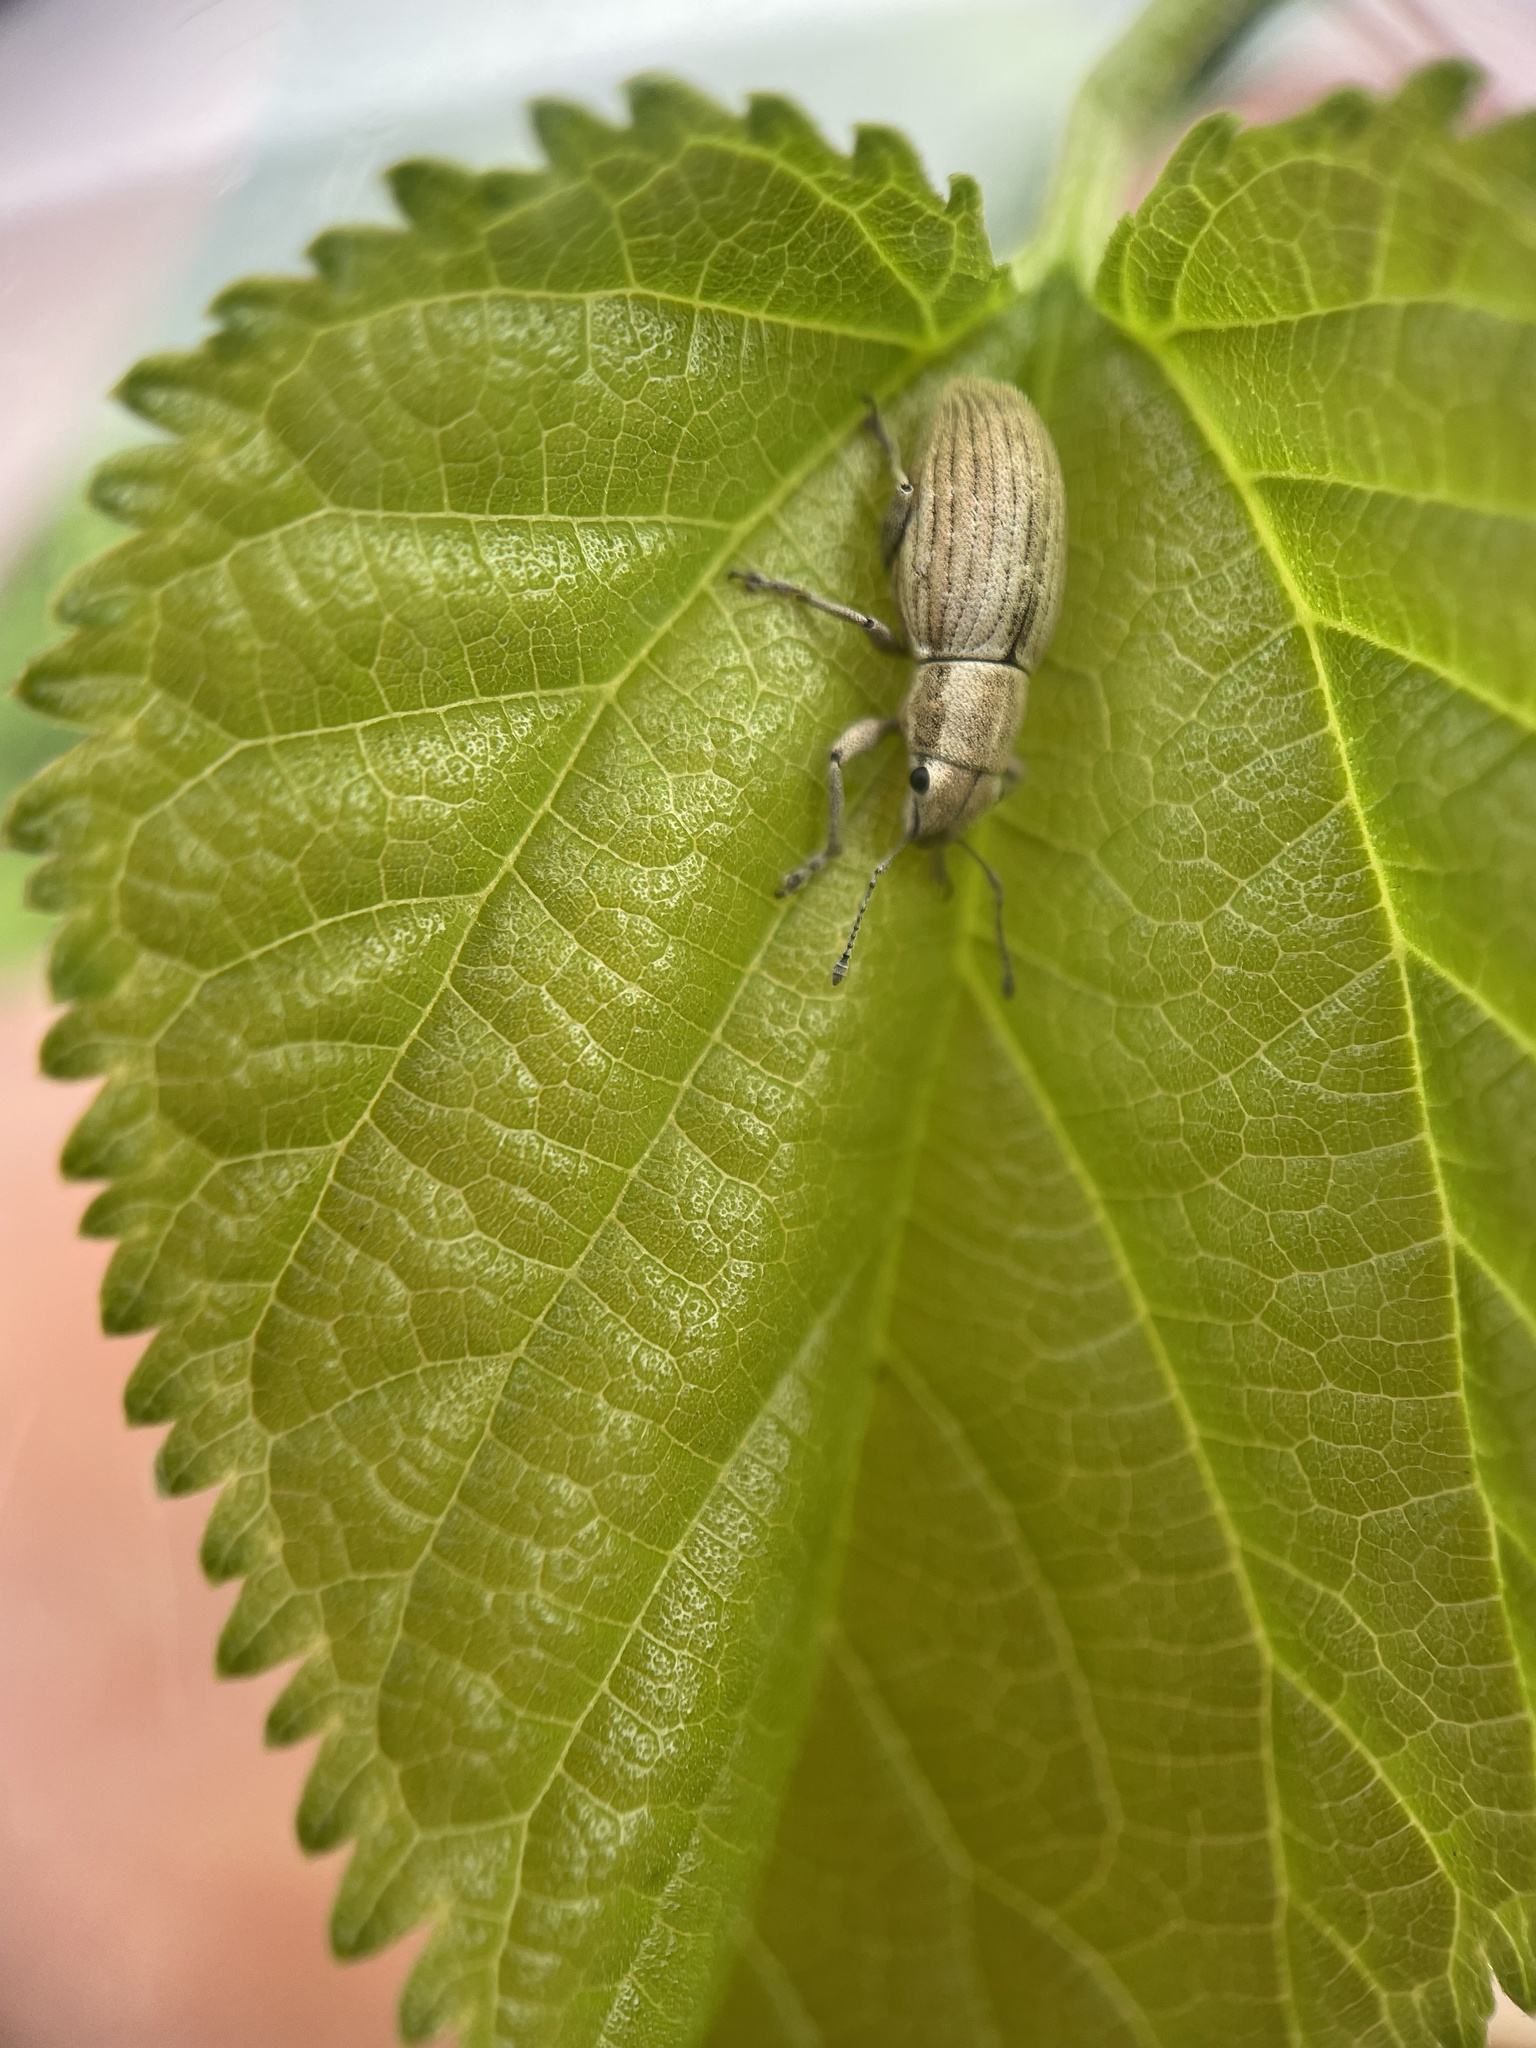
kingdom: Animalia
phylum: Arthropoda
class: Insecta
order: Coleoptera
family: Curculionidae
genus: Aramigus
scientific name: Aramigus tessellatus
